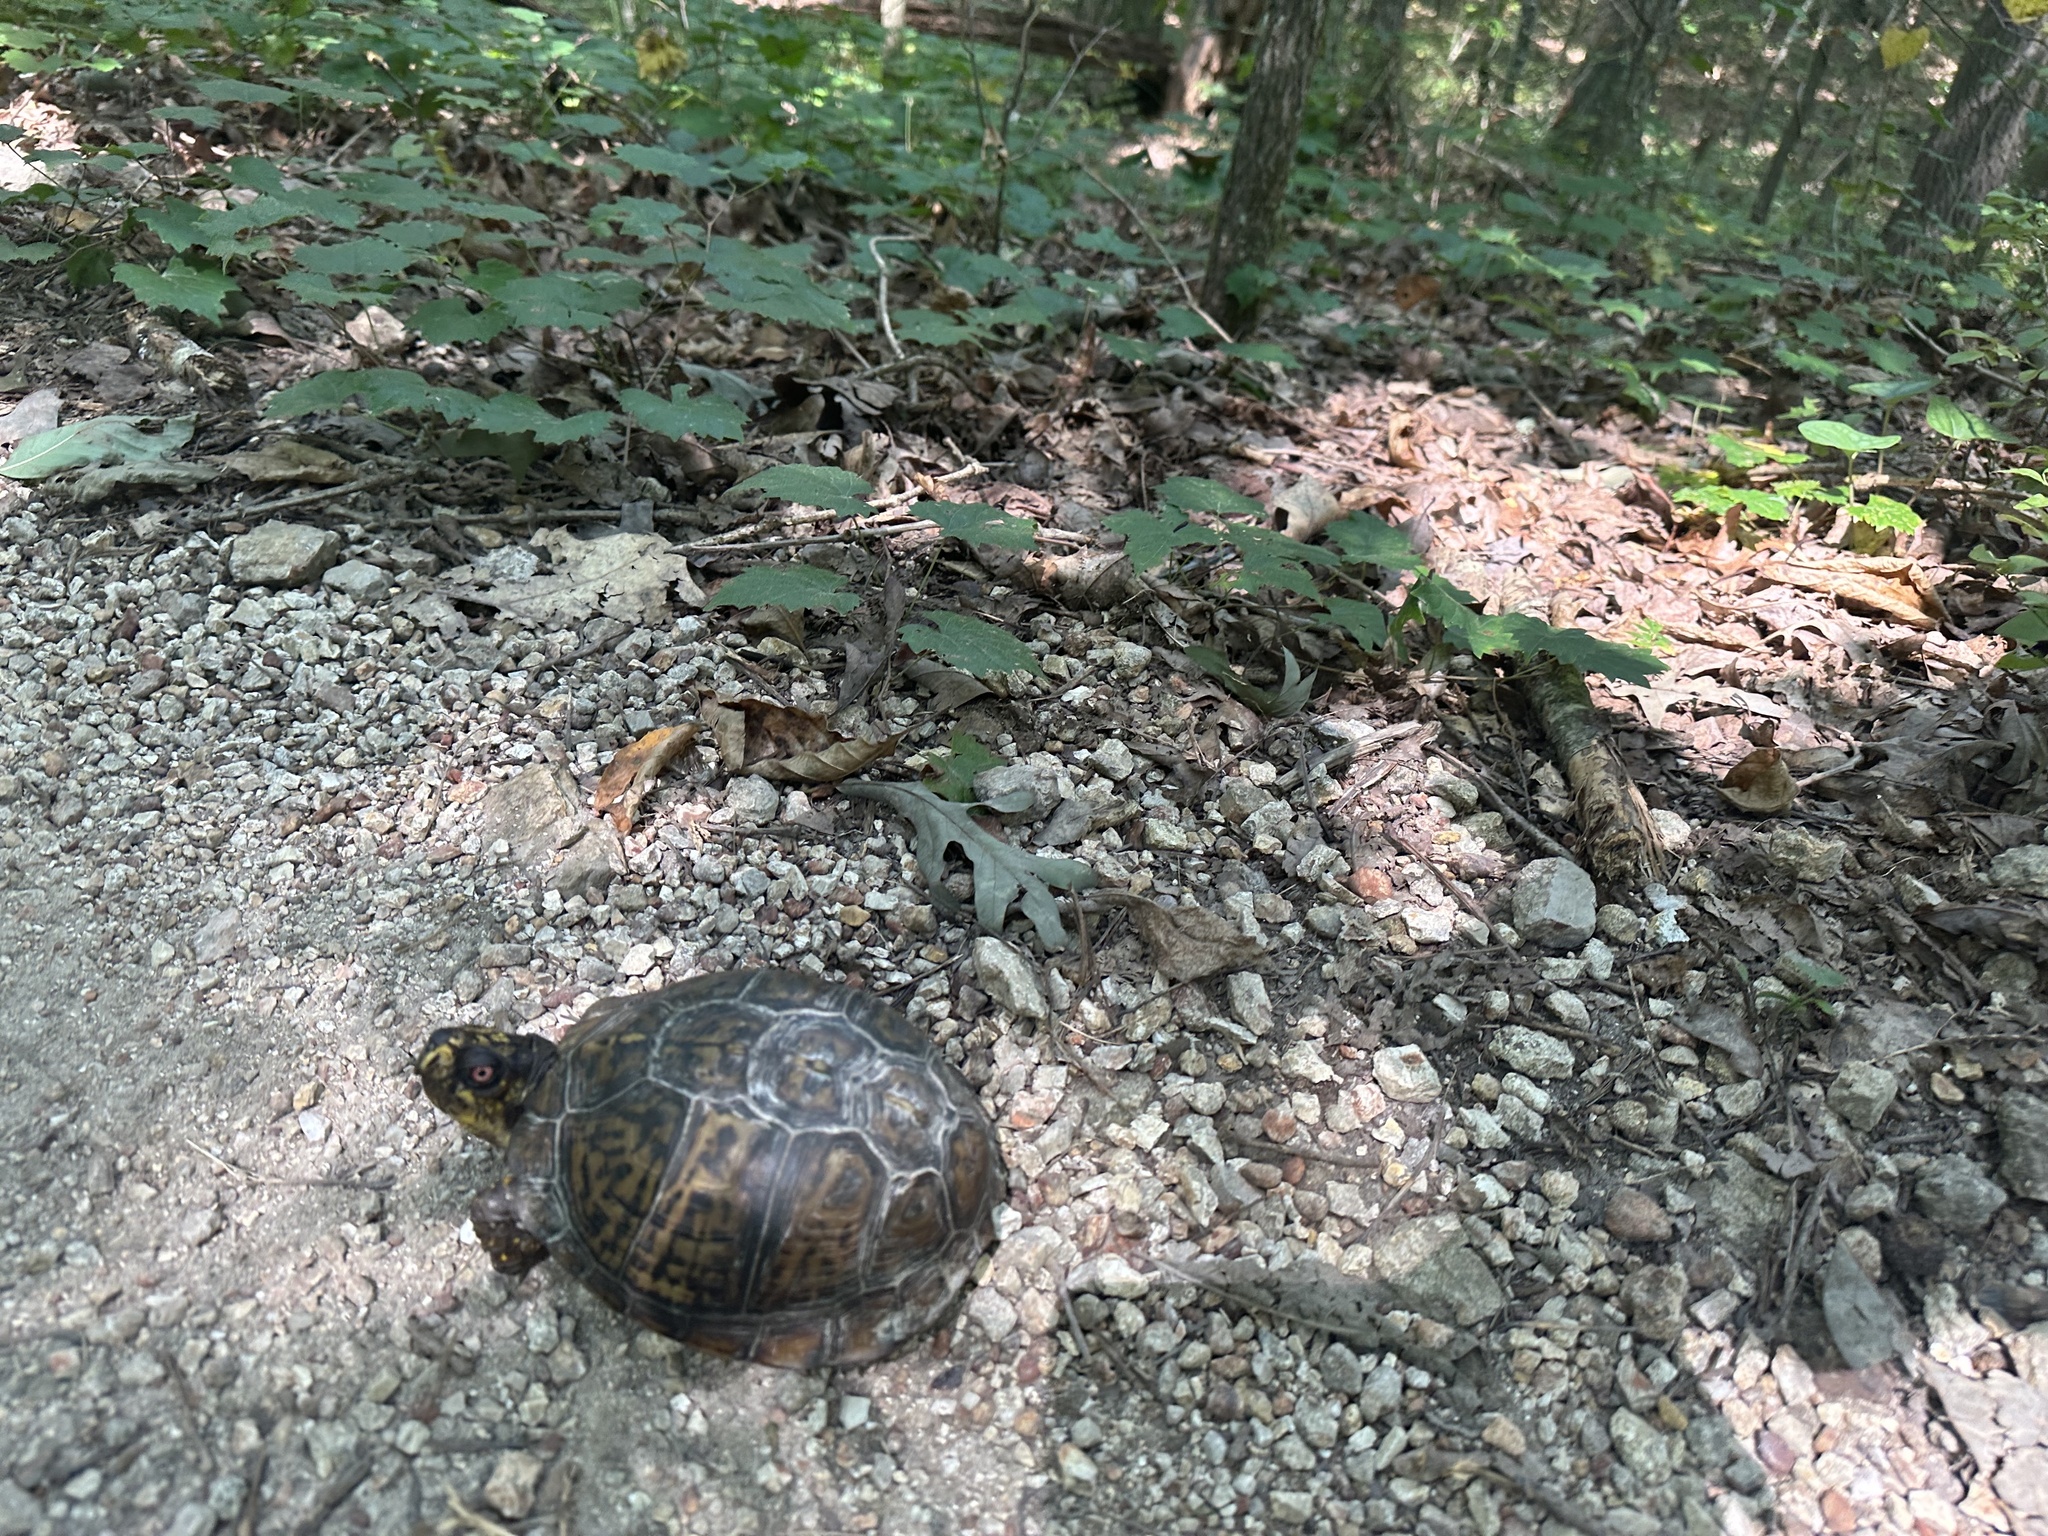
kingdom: Animalia
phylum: Chordata
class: Testudines
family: Emydidae
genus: Terrapene
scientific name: Terrapene carolina
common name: Common box turtle
